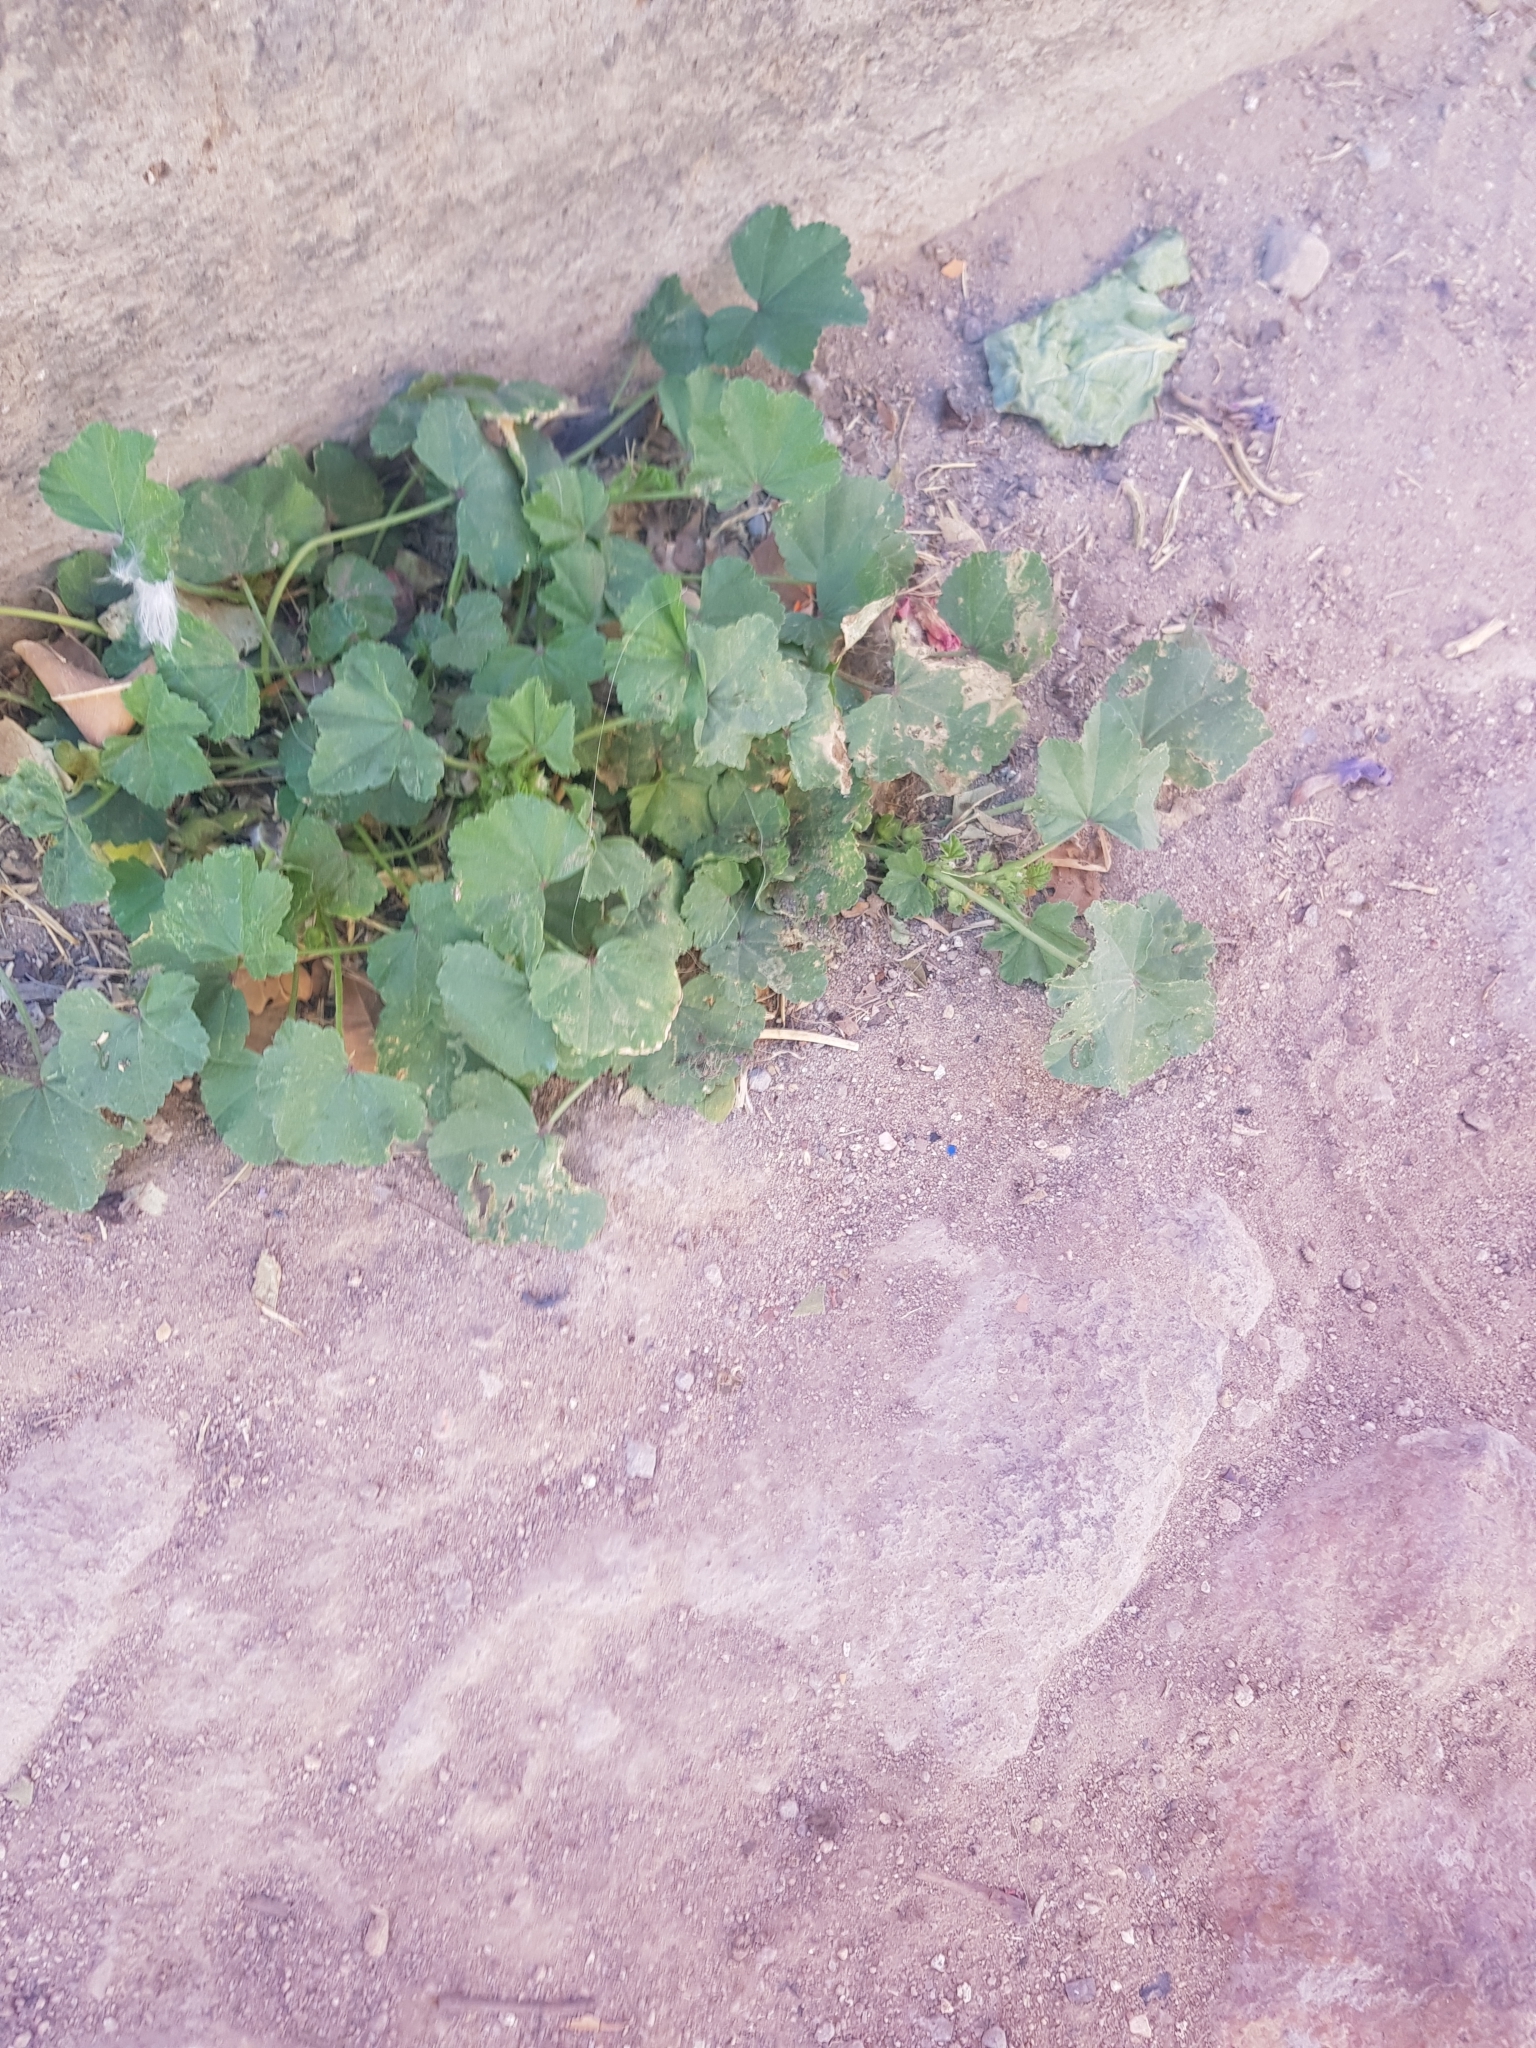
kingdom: Plantae
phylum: Tracheophyta
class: Magnoliopsida
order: Malvales
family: Malvaceae
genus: Malva
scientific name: Malva parviflora
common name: Least mallow
